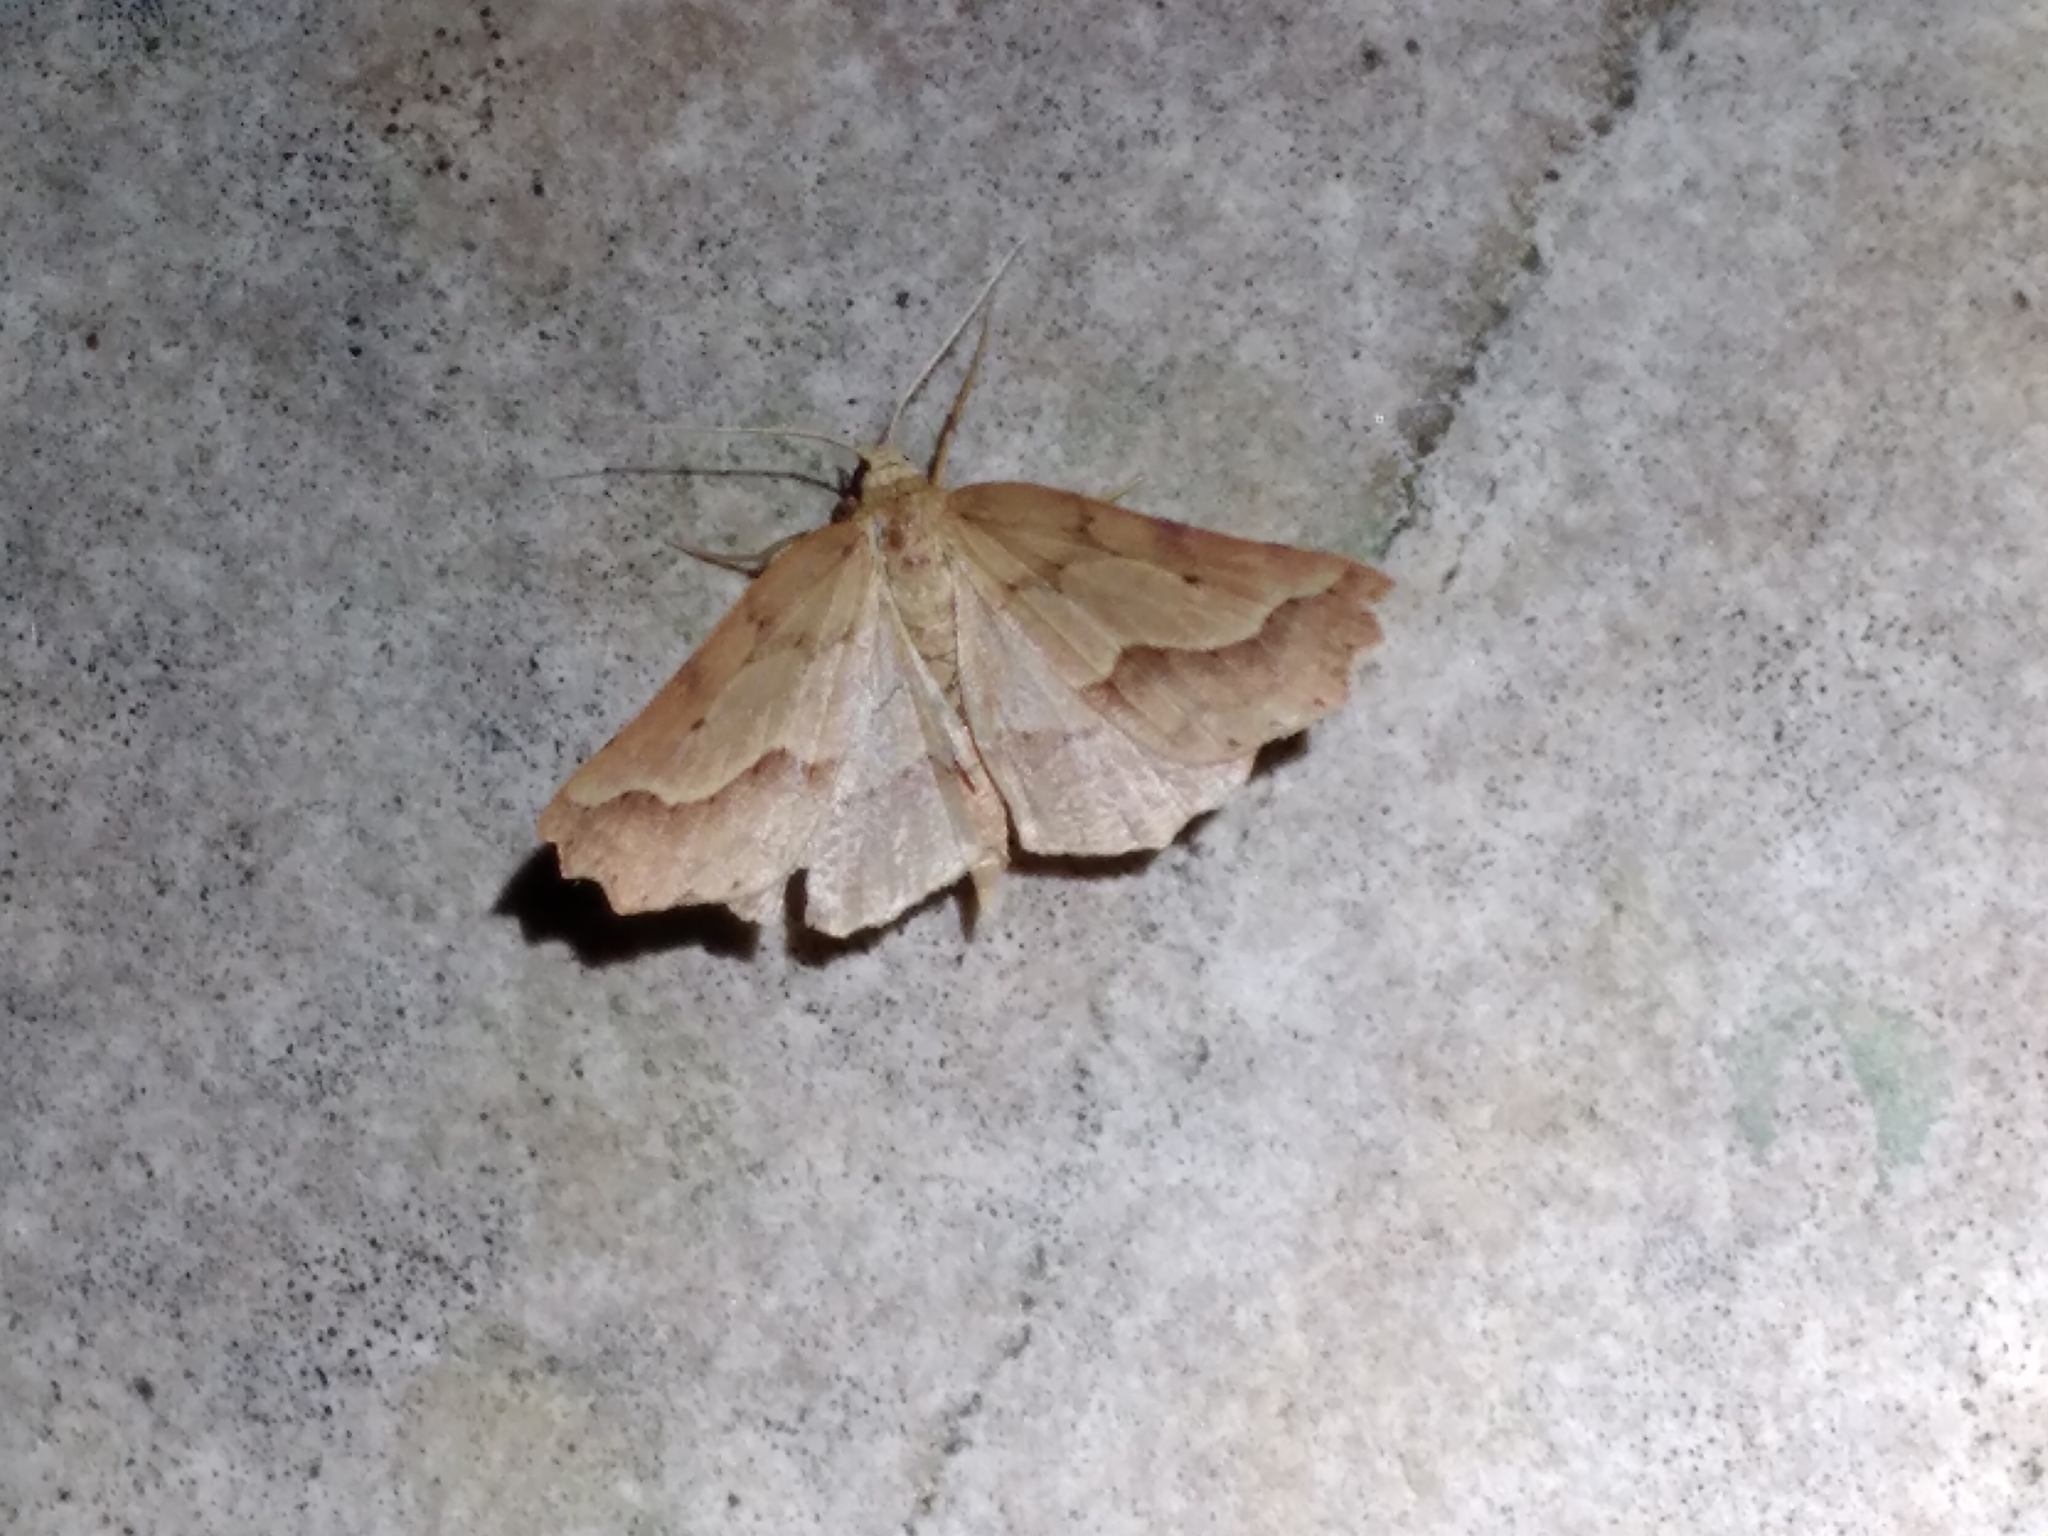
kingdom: Animalia
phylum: Arthropoda
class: Insecta
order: Lepidoptera
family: Geometridae
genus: Ischalis
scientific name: Ischalis fortinata
